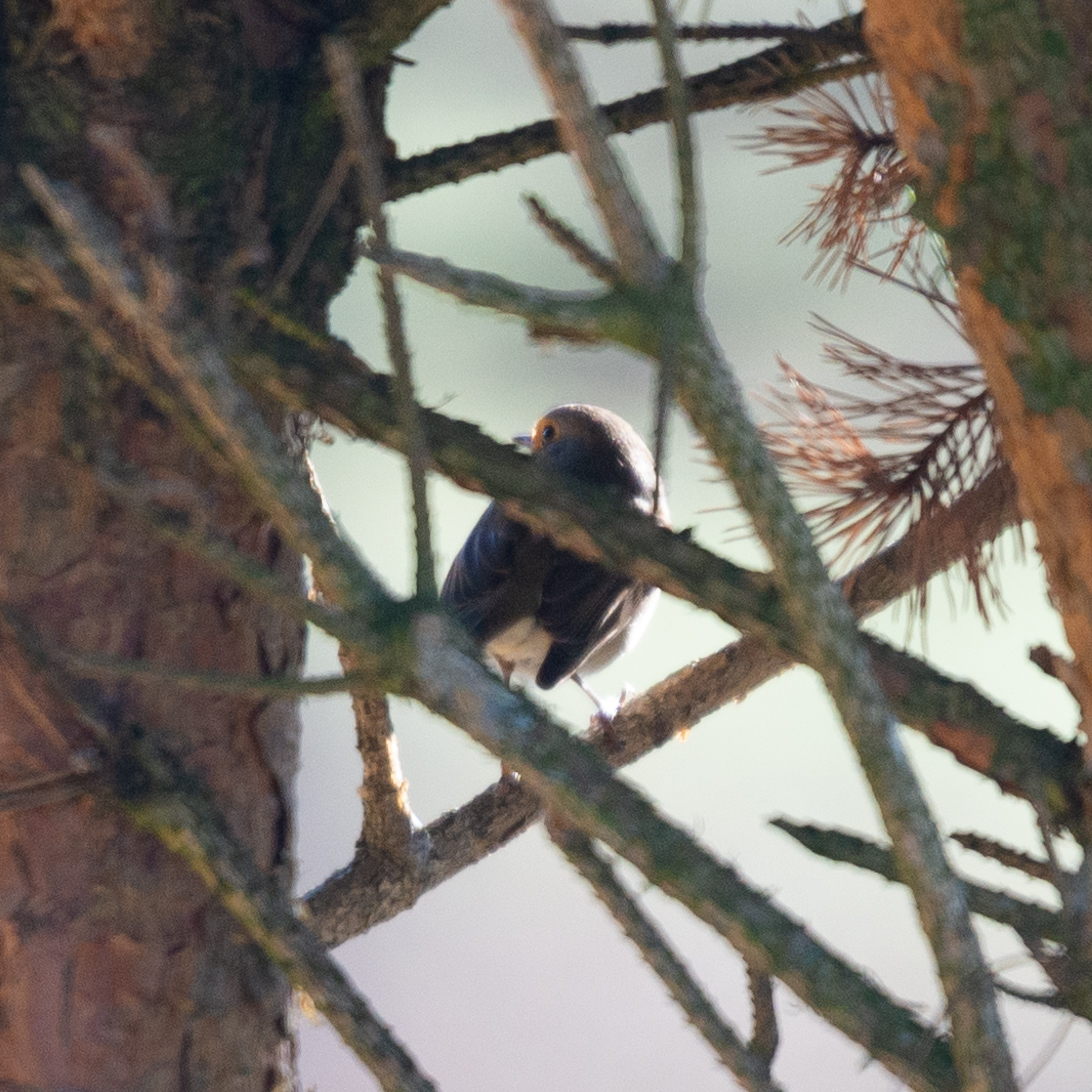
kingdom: Animalia
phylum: Chordata
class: Aves
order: Passeriformes
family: Muscicapidae
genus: Erithacus
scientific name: Erithacus rubecula
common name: European robin
